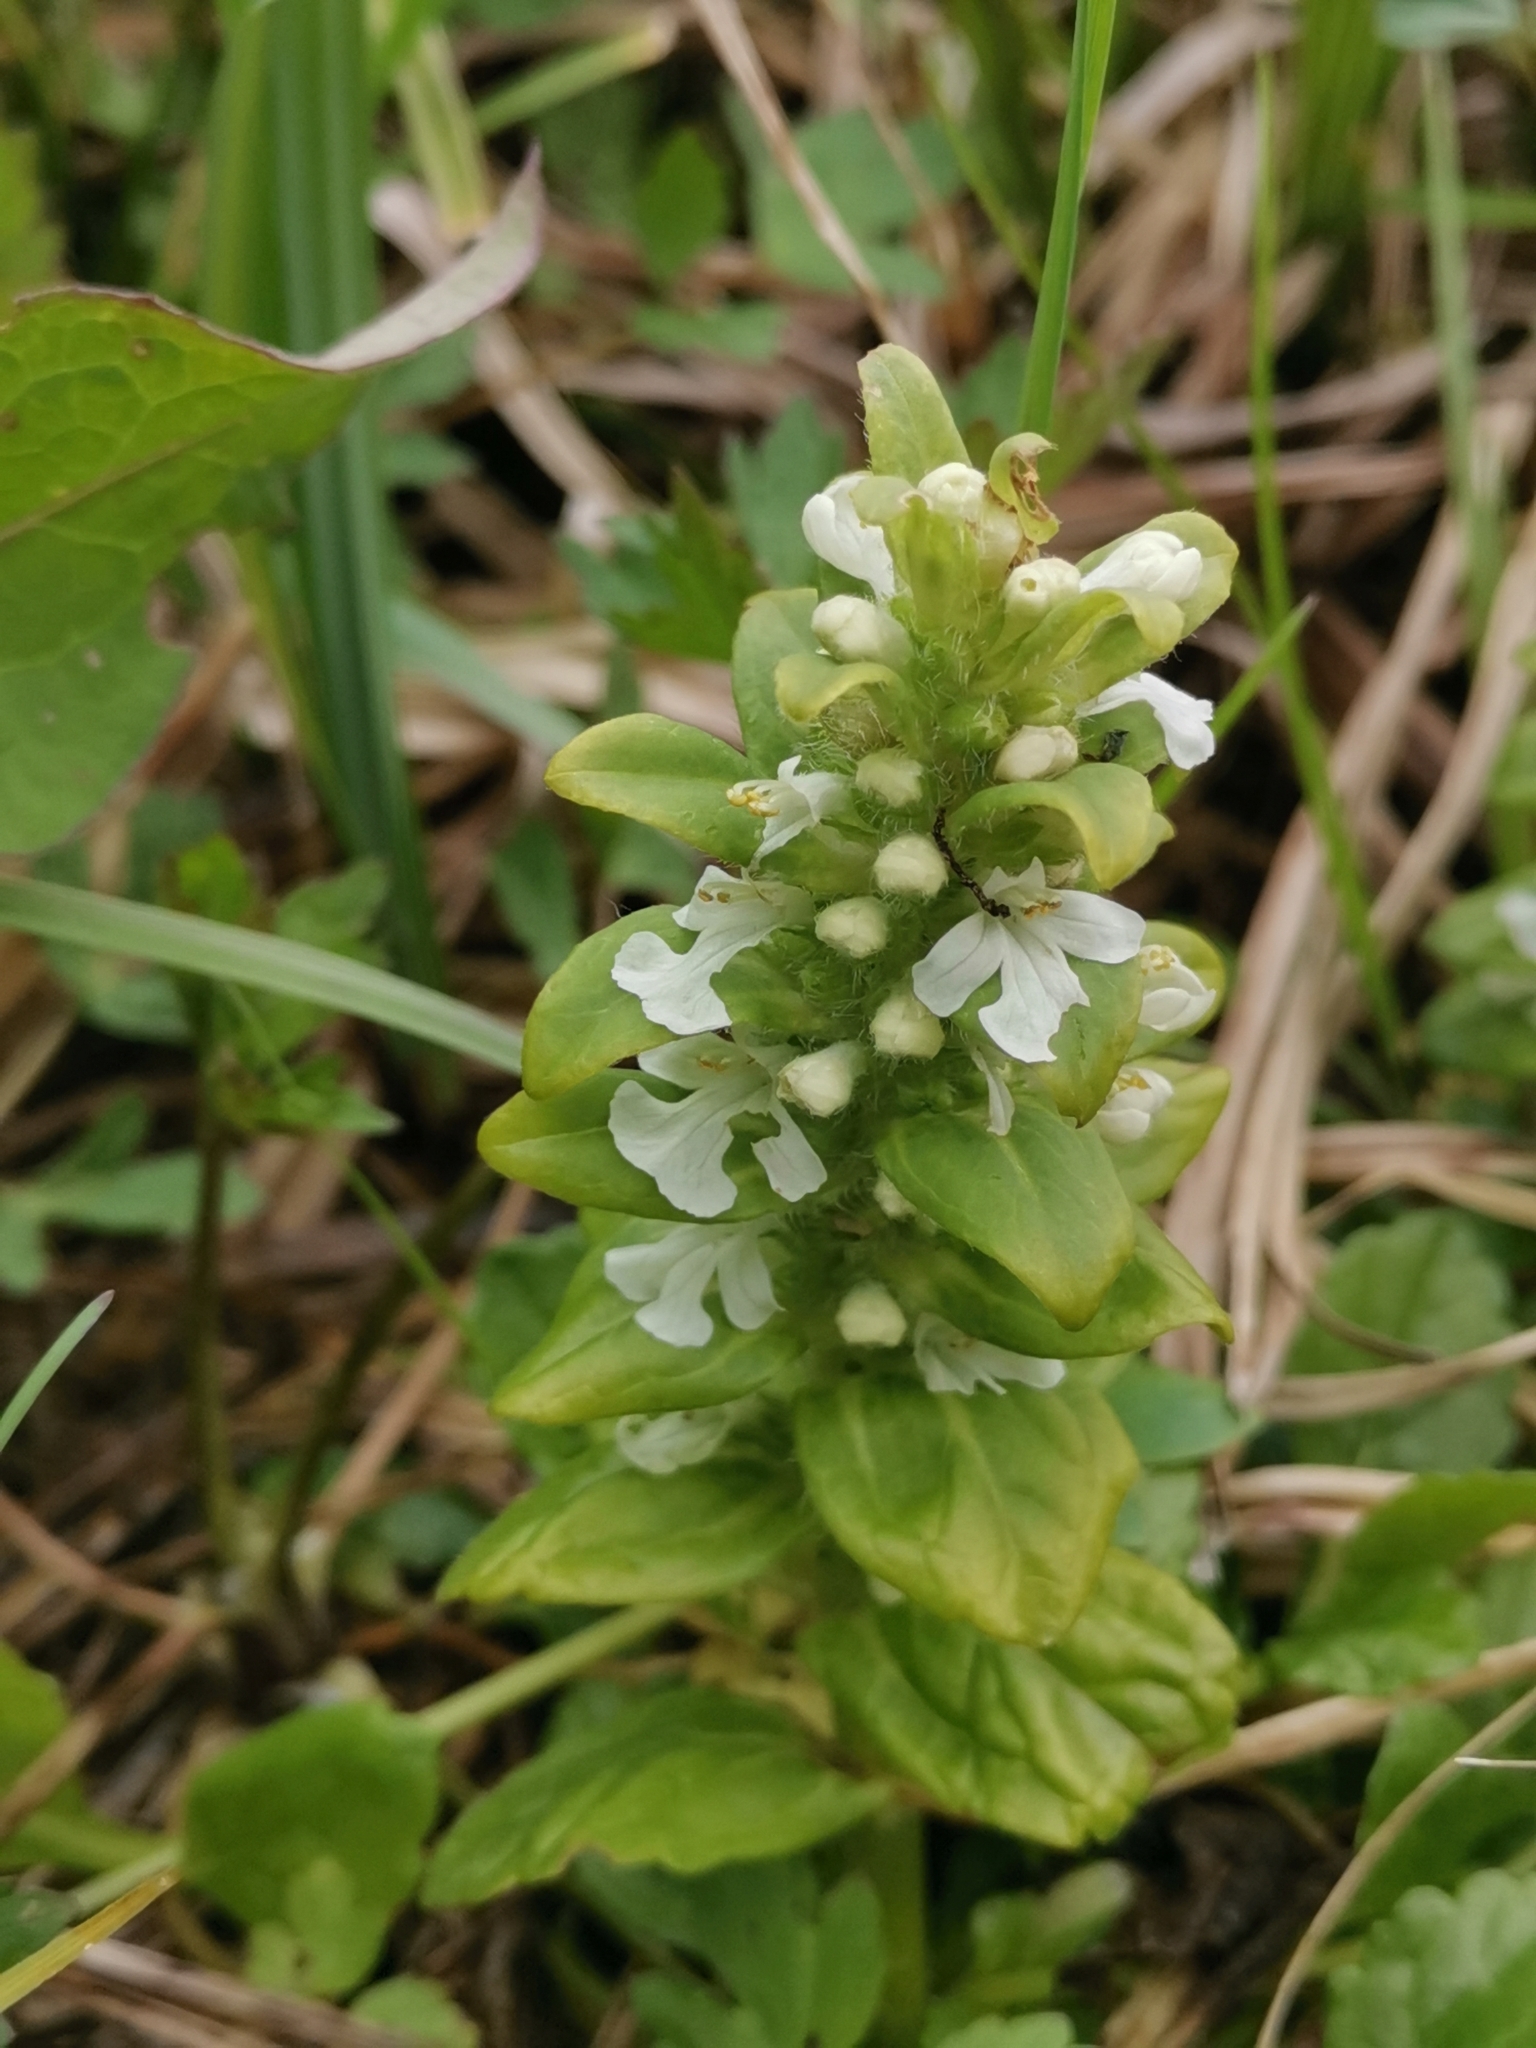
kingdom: Plantae
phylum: Tracheophyta
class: Magnoliopsida
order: Lamiales
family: Lamiaceae
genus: Ajuga
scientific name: Ajuga reptans
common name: Bugle
